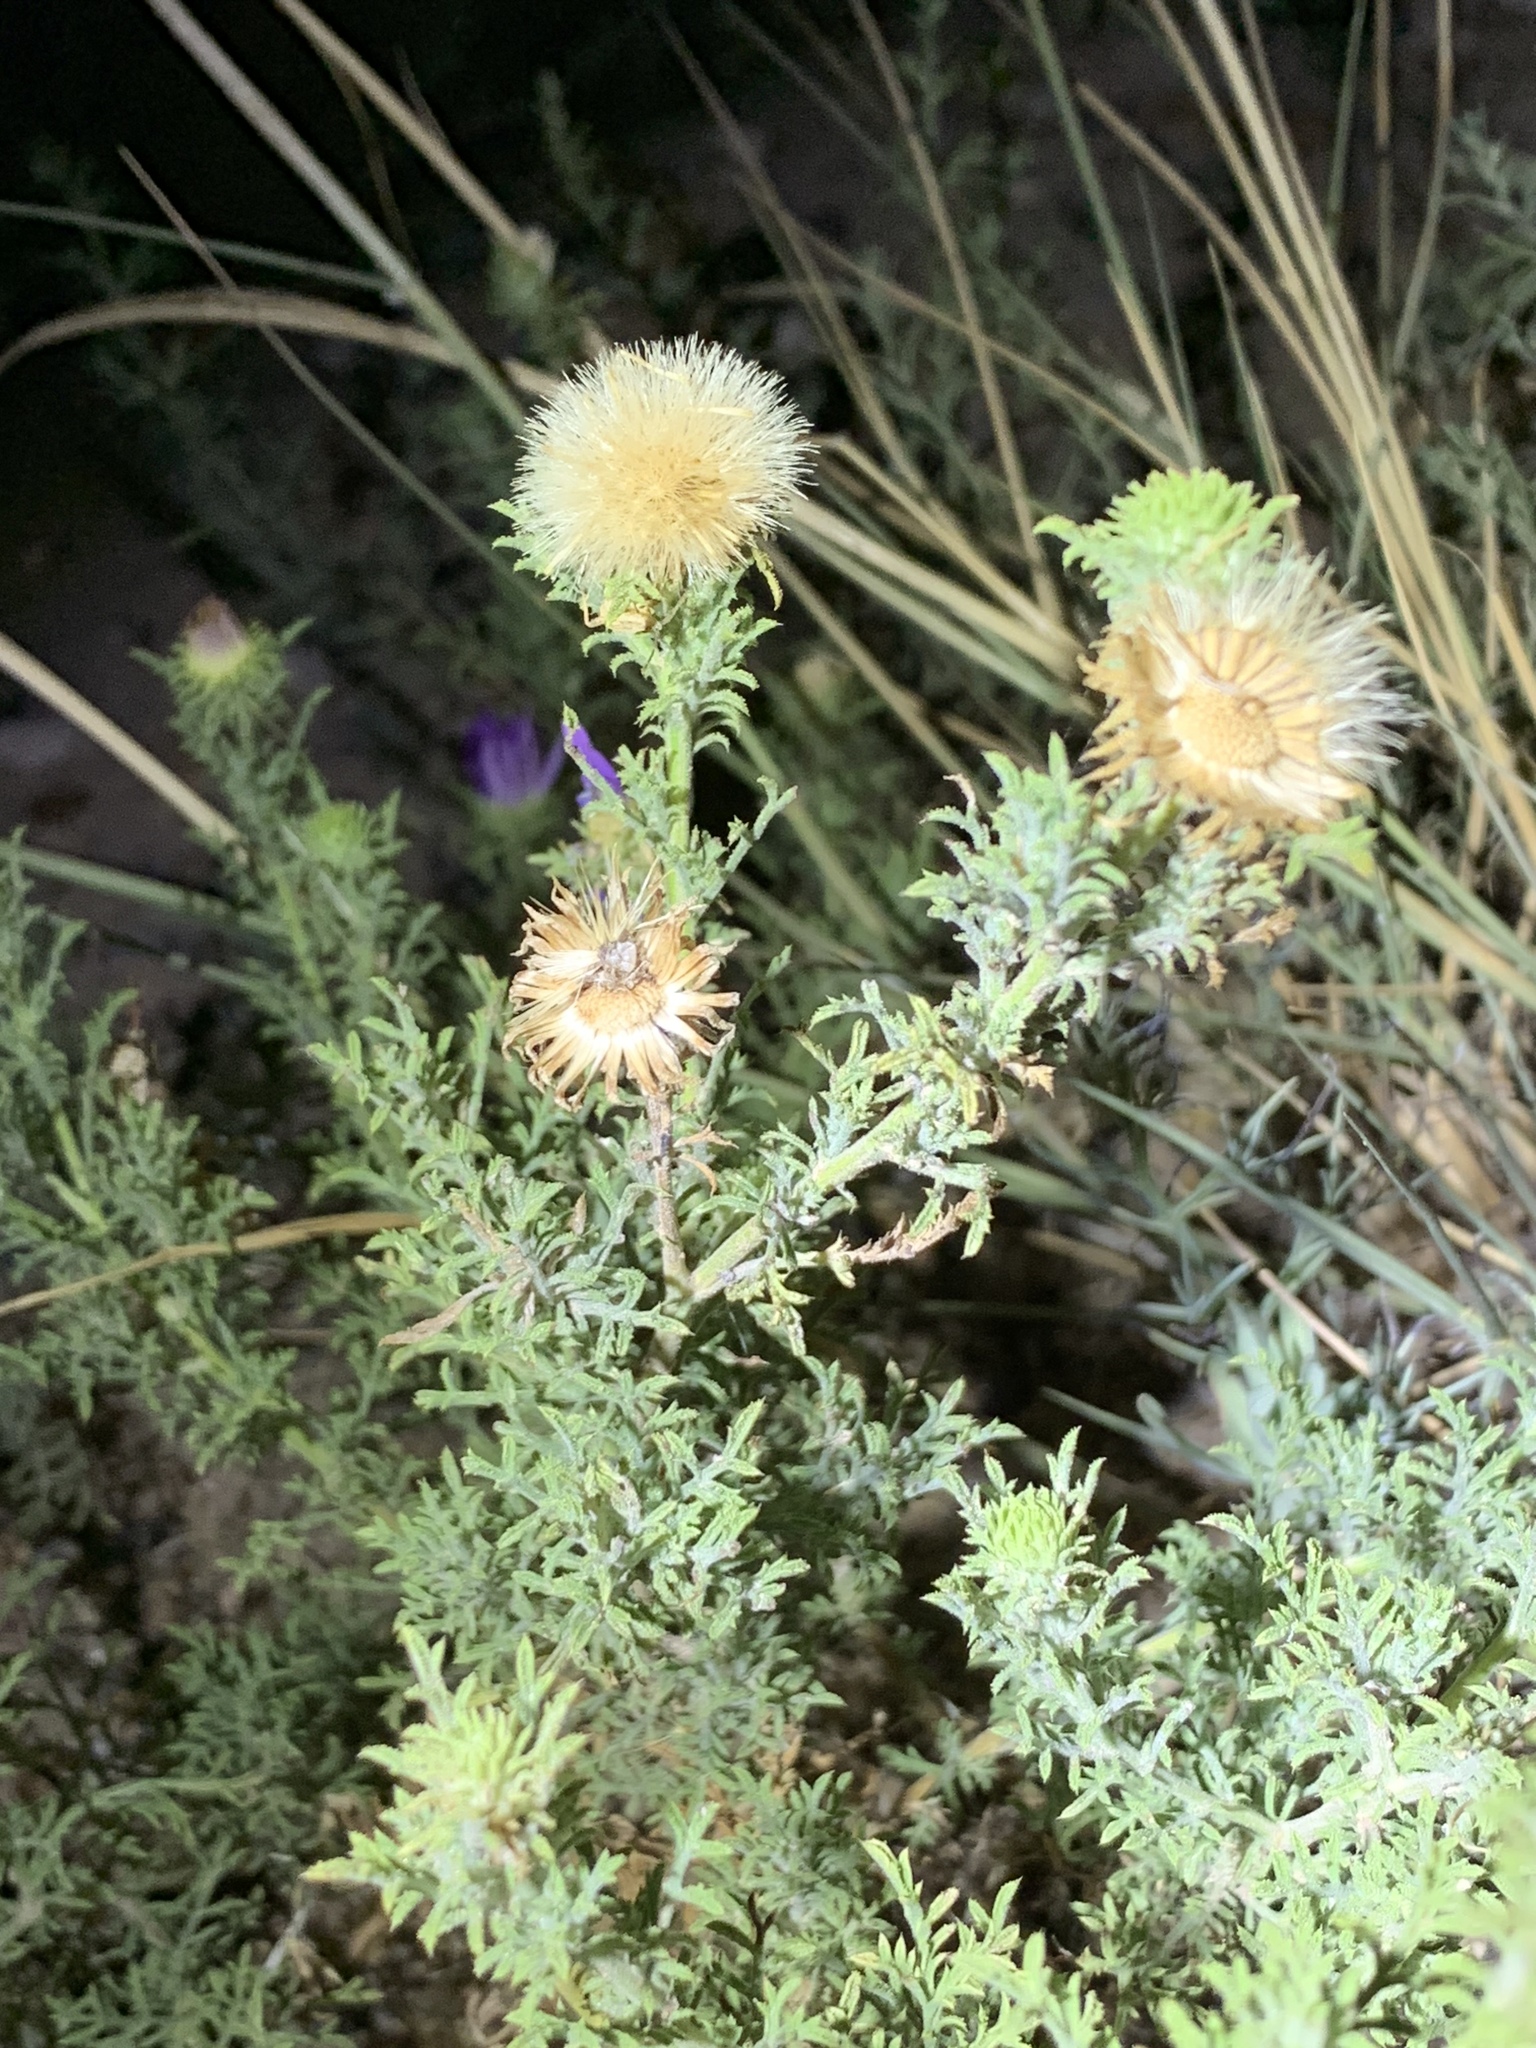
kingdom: Plantae
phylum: Tracheophyta
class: Magnoliopsida
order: Asterales
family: Asteraceae
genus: Machaeranthera
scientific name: Machaeranthera tanacetifolia
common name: Tansy-aster
